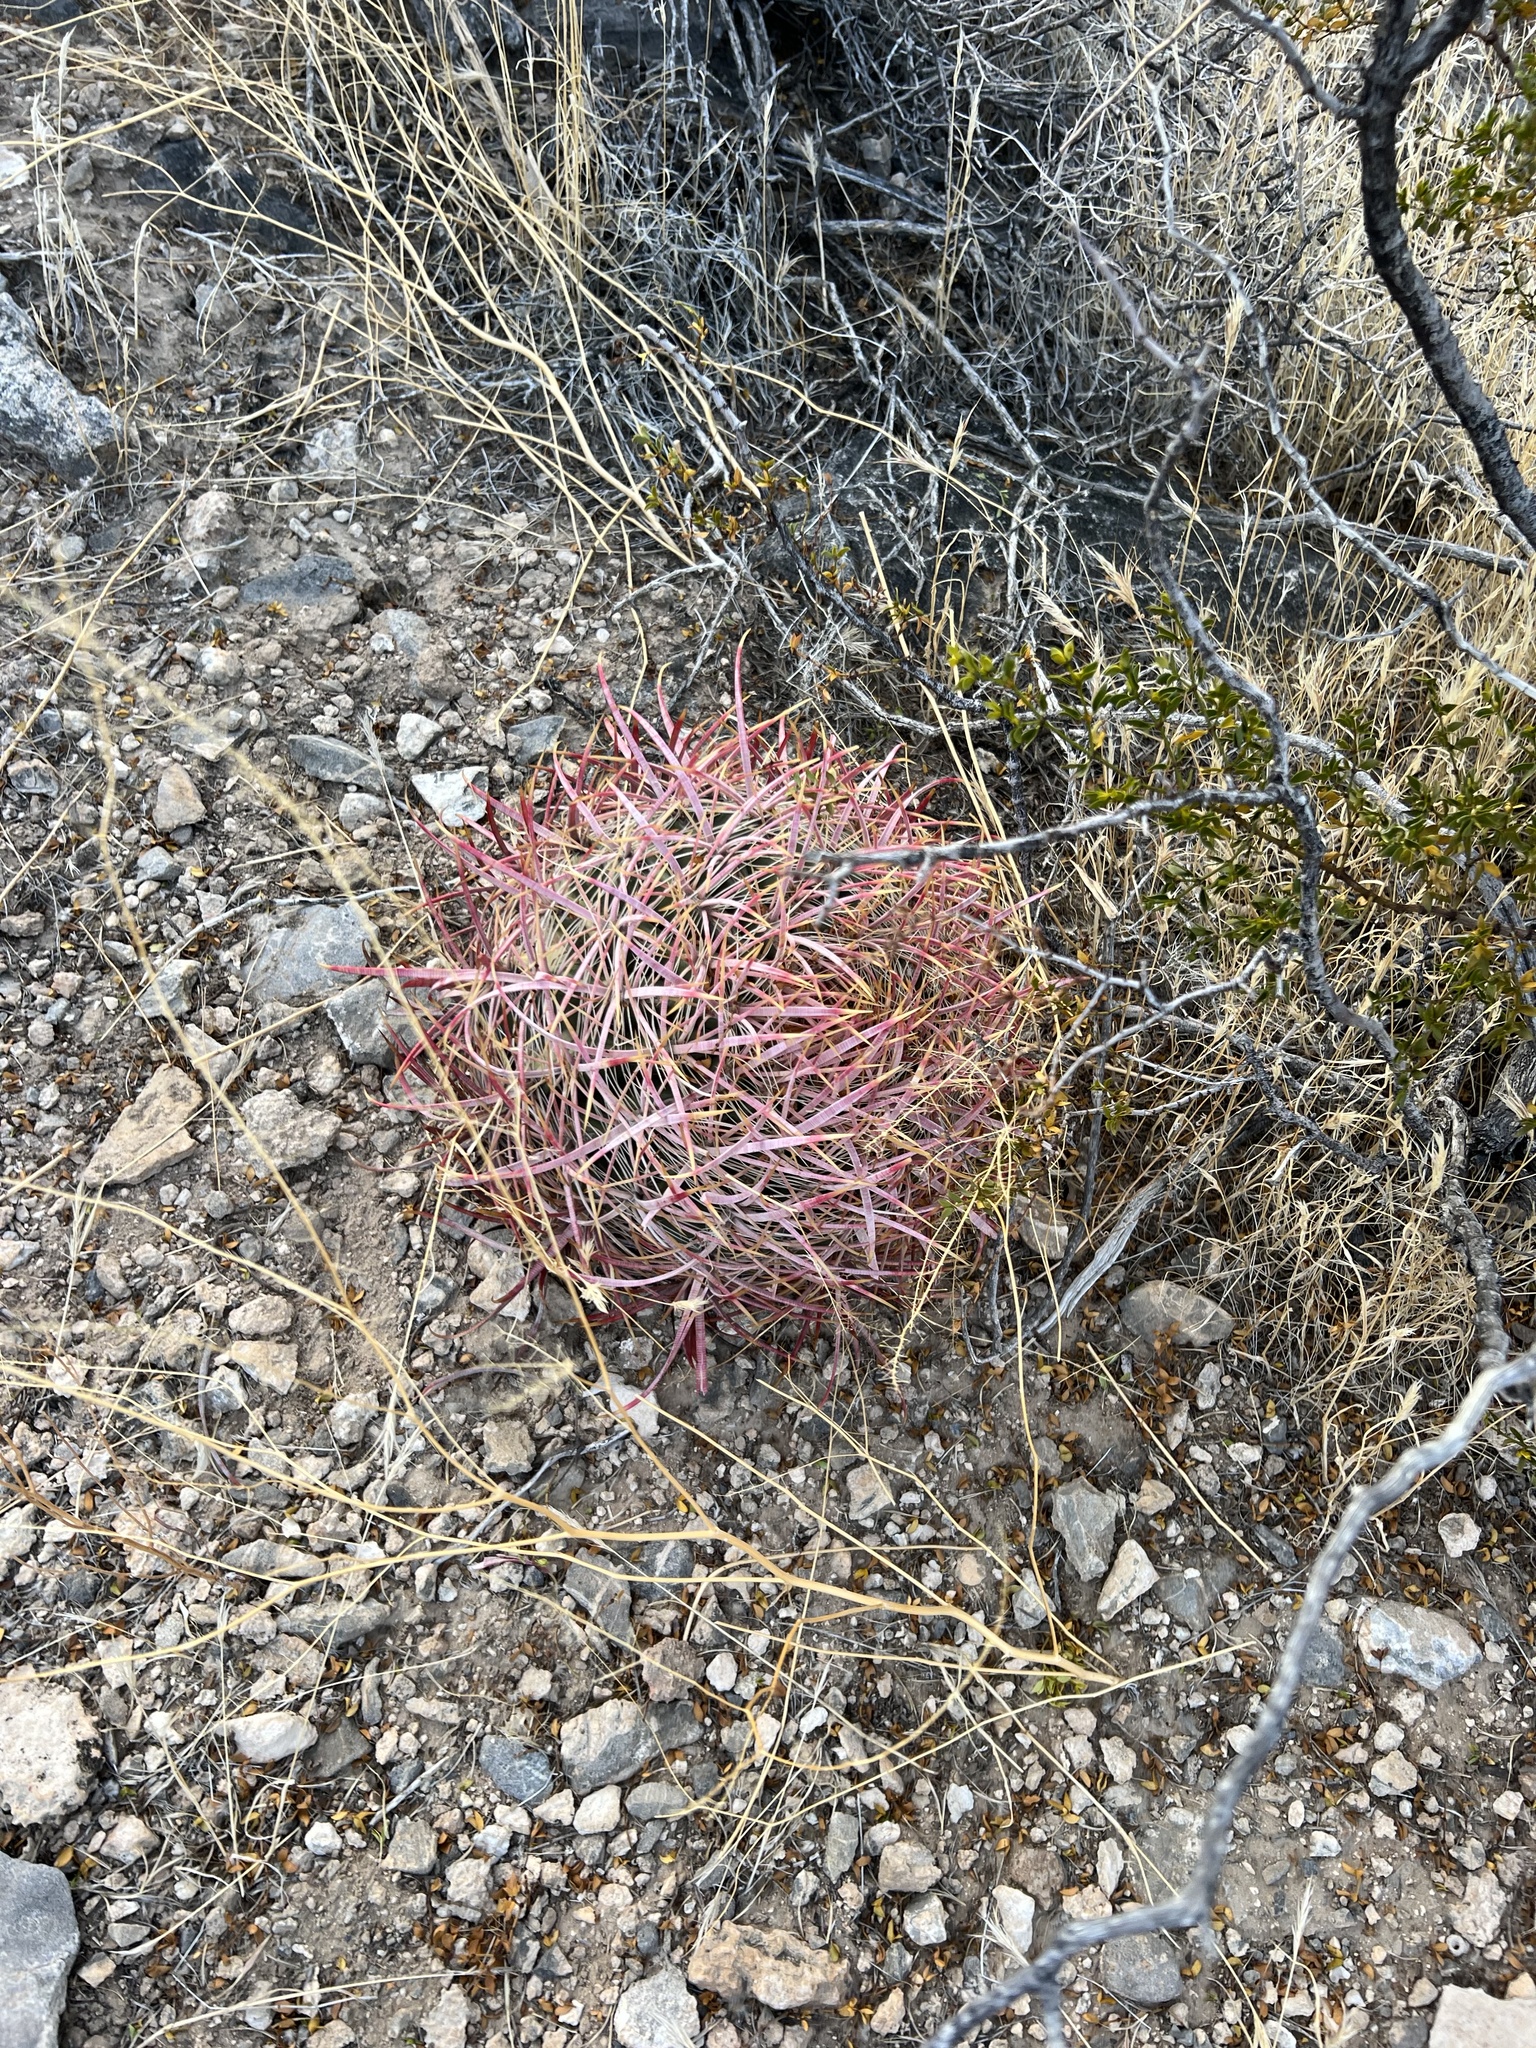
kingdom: Plantae
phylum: Tracheophyta
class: Magnoliopsida
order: Caryophyllales
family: Cactaceae
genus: Ferocactus
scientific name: Ferocactus cylindraceus
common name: California barrel cactus
